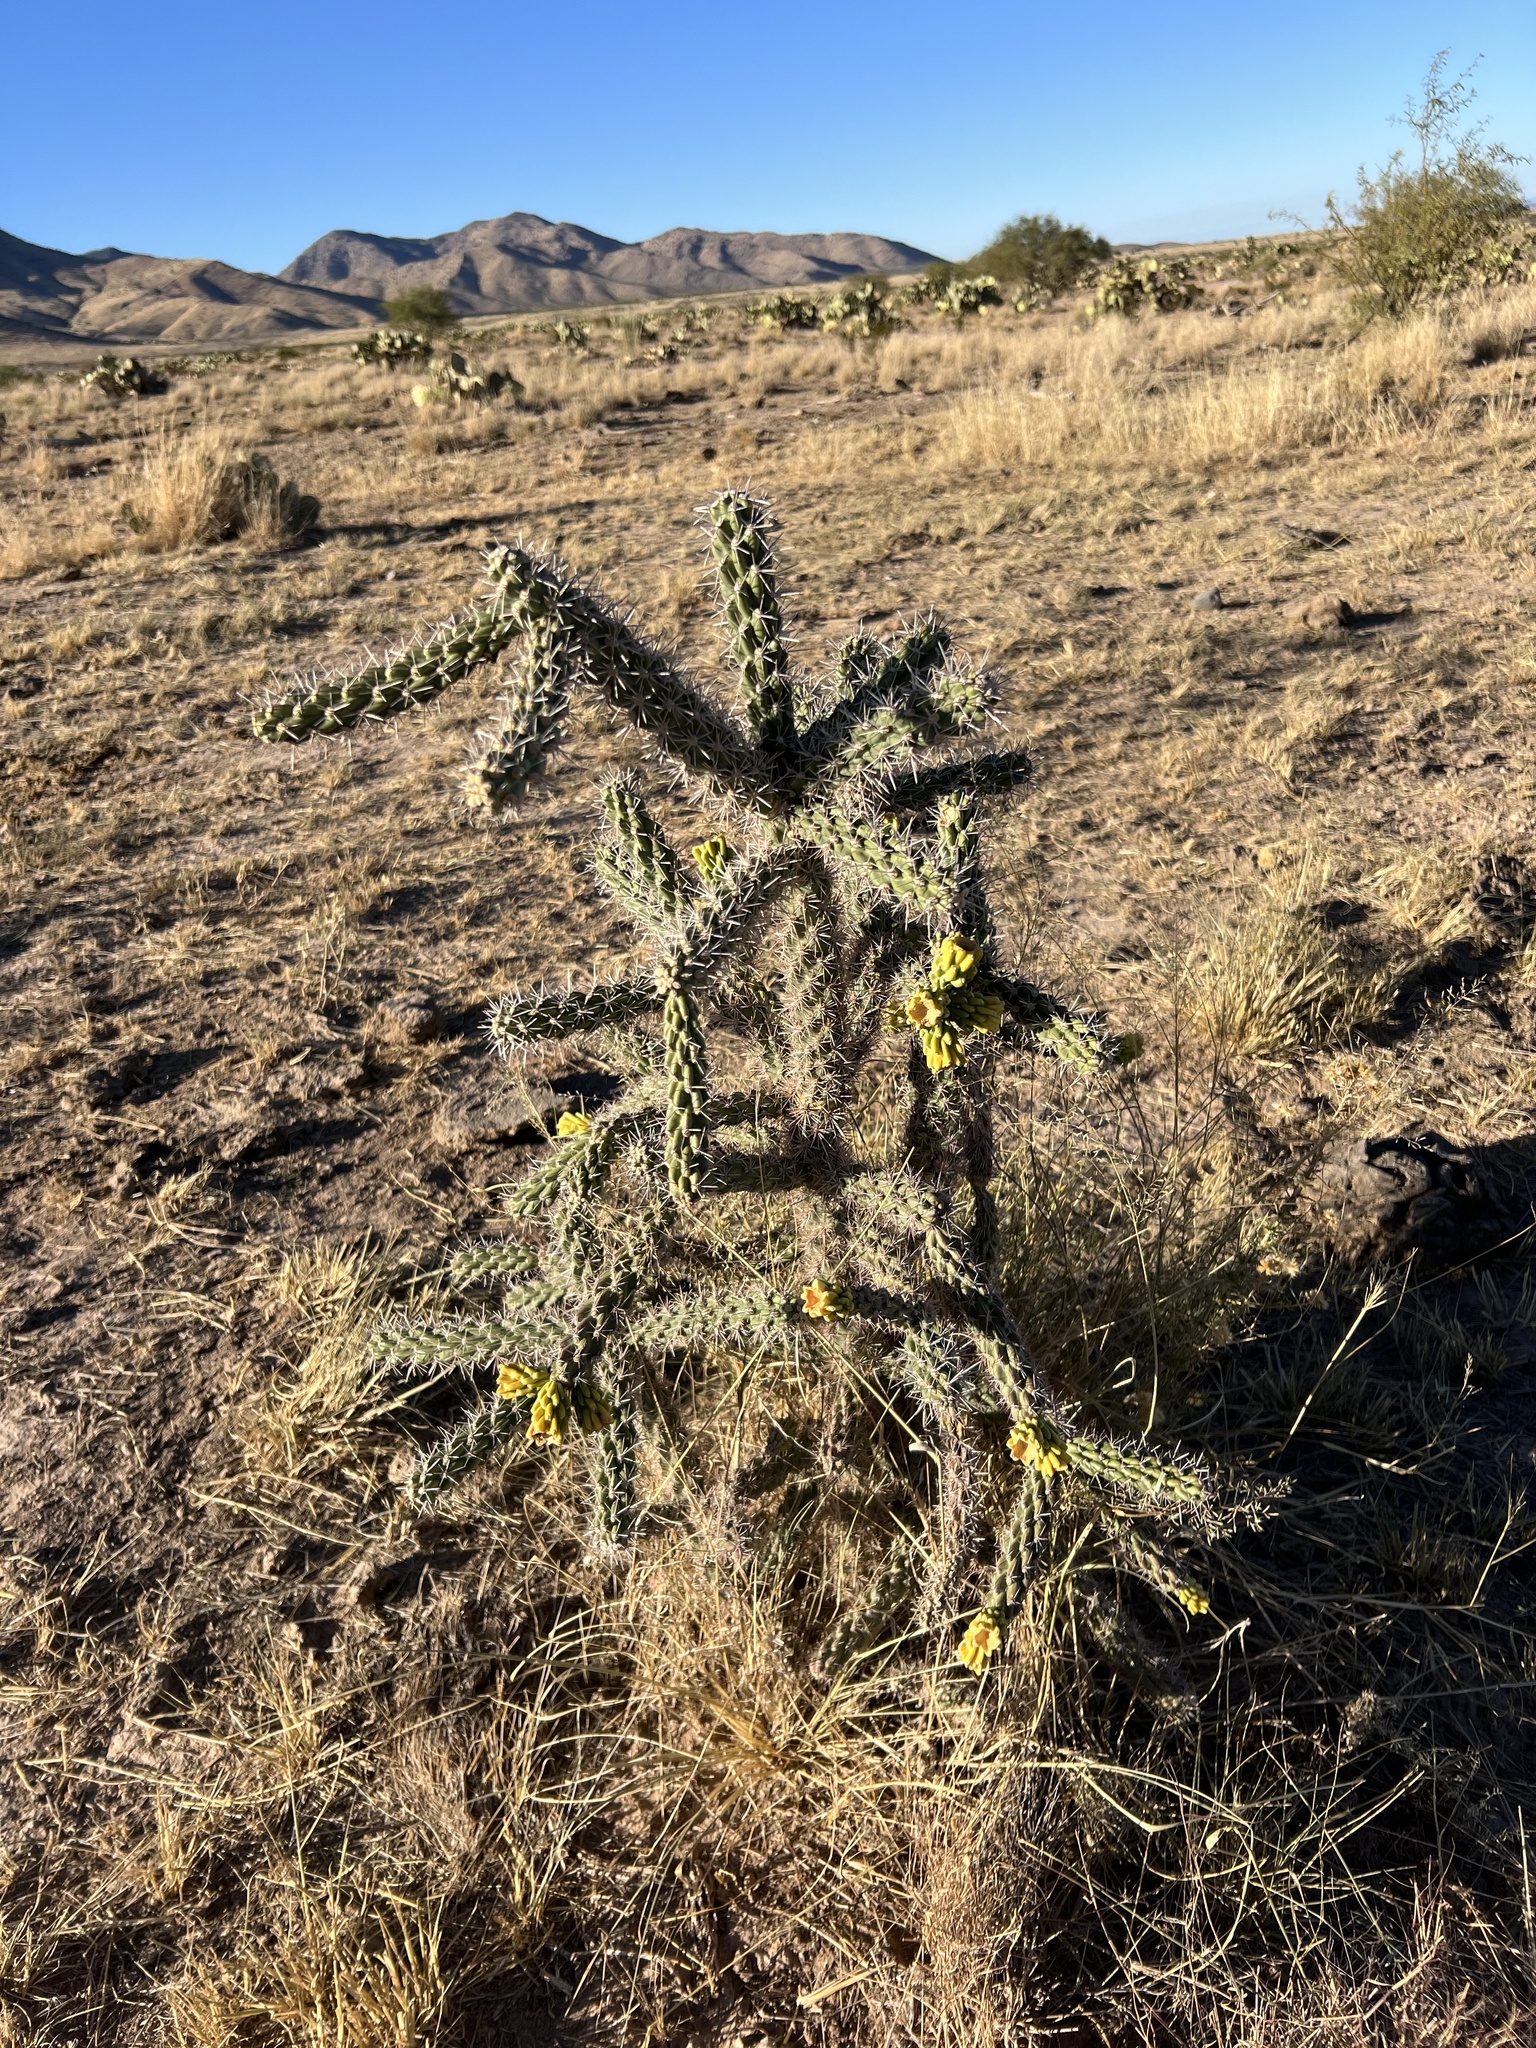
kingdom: Plantae
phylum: Tracheophyta
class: Magnoliopsida
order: Caryophyllales
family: Cactaceae
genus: Cylindropuntia
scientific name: Cylindropuntia imbricata
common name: Candelabrum cactus
